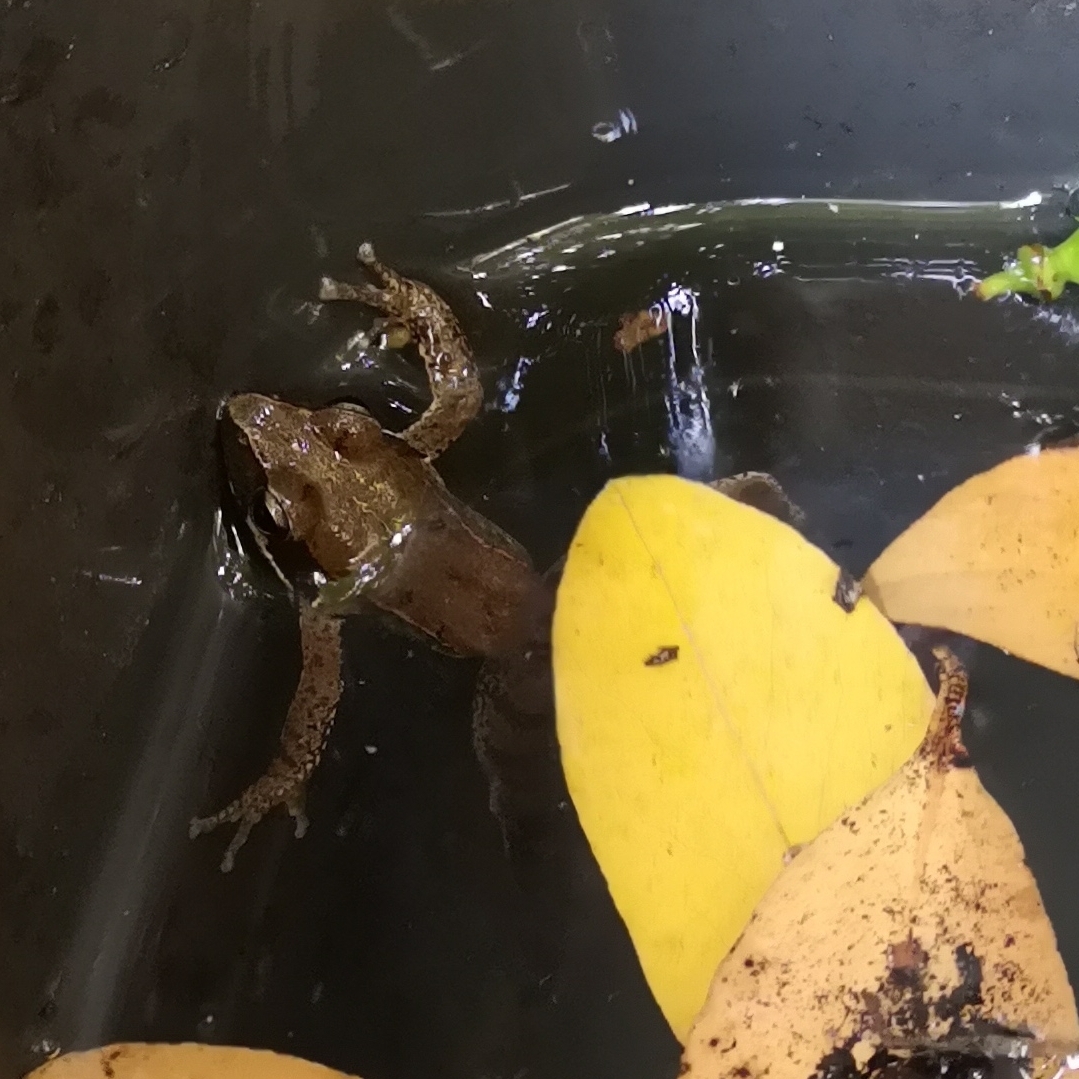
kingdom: Animalia
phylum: Chordata
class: Amphibia
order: Anura
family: Ranidae
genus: Rana
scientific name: Rana latastei
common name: Italian agile frog
